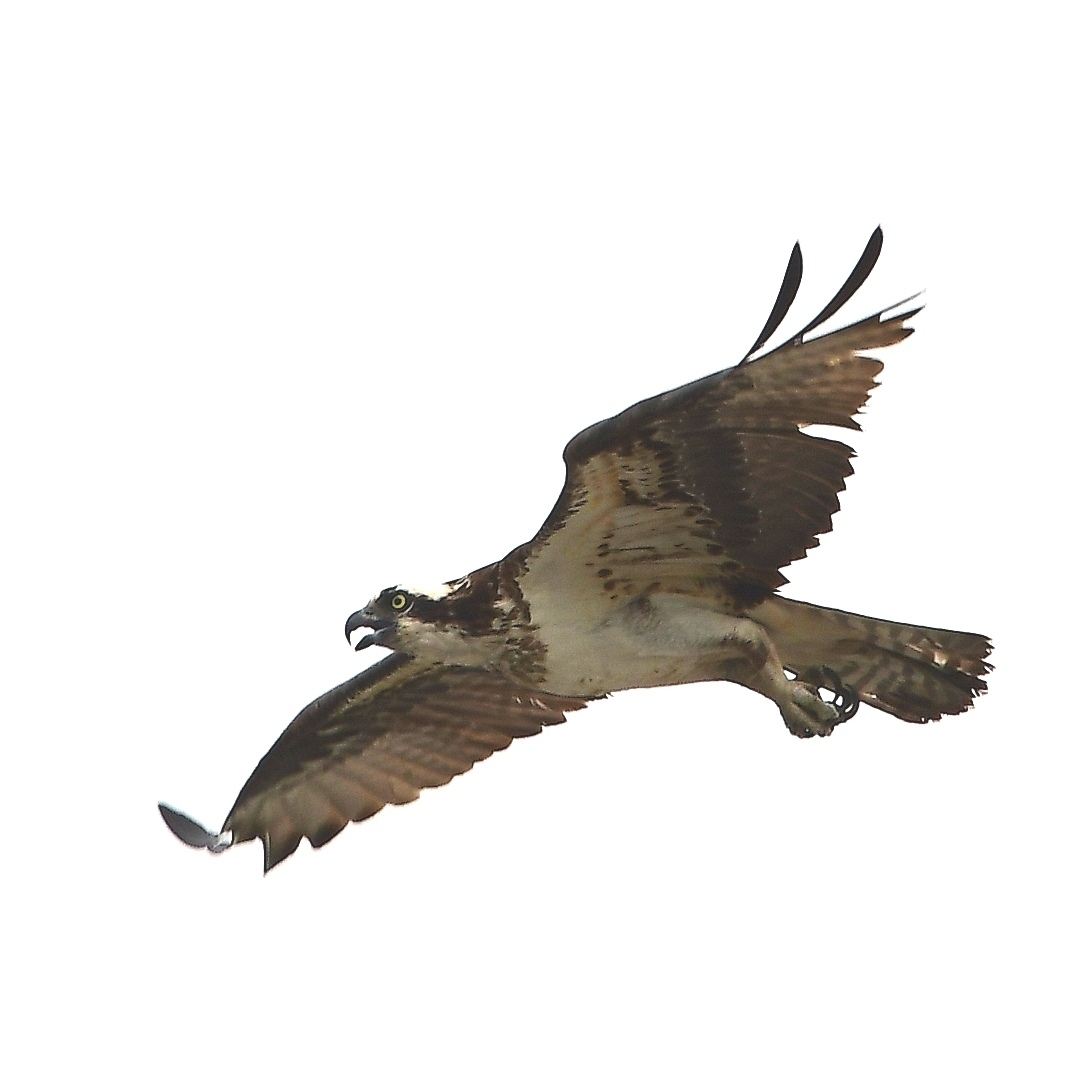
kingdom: Animalia
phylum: Chordata
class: Aves
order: Accipitriformes
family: Pandionidae
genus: Pandion
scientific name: Pandion haliaetus
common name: Osprey
